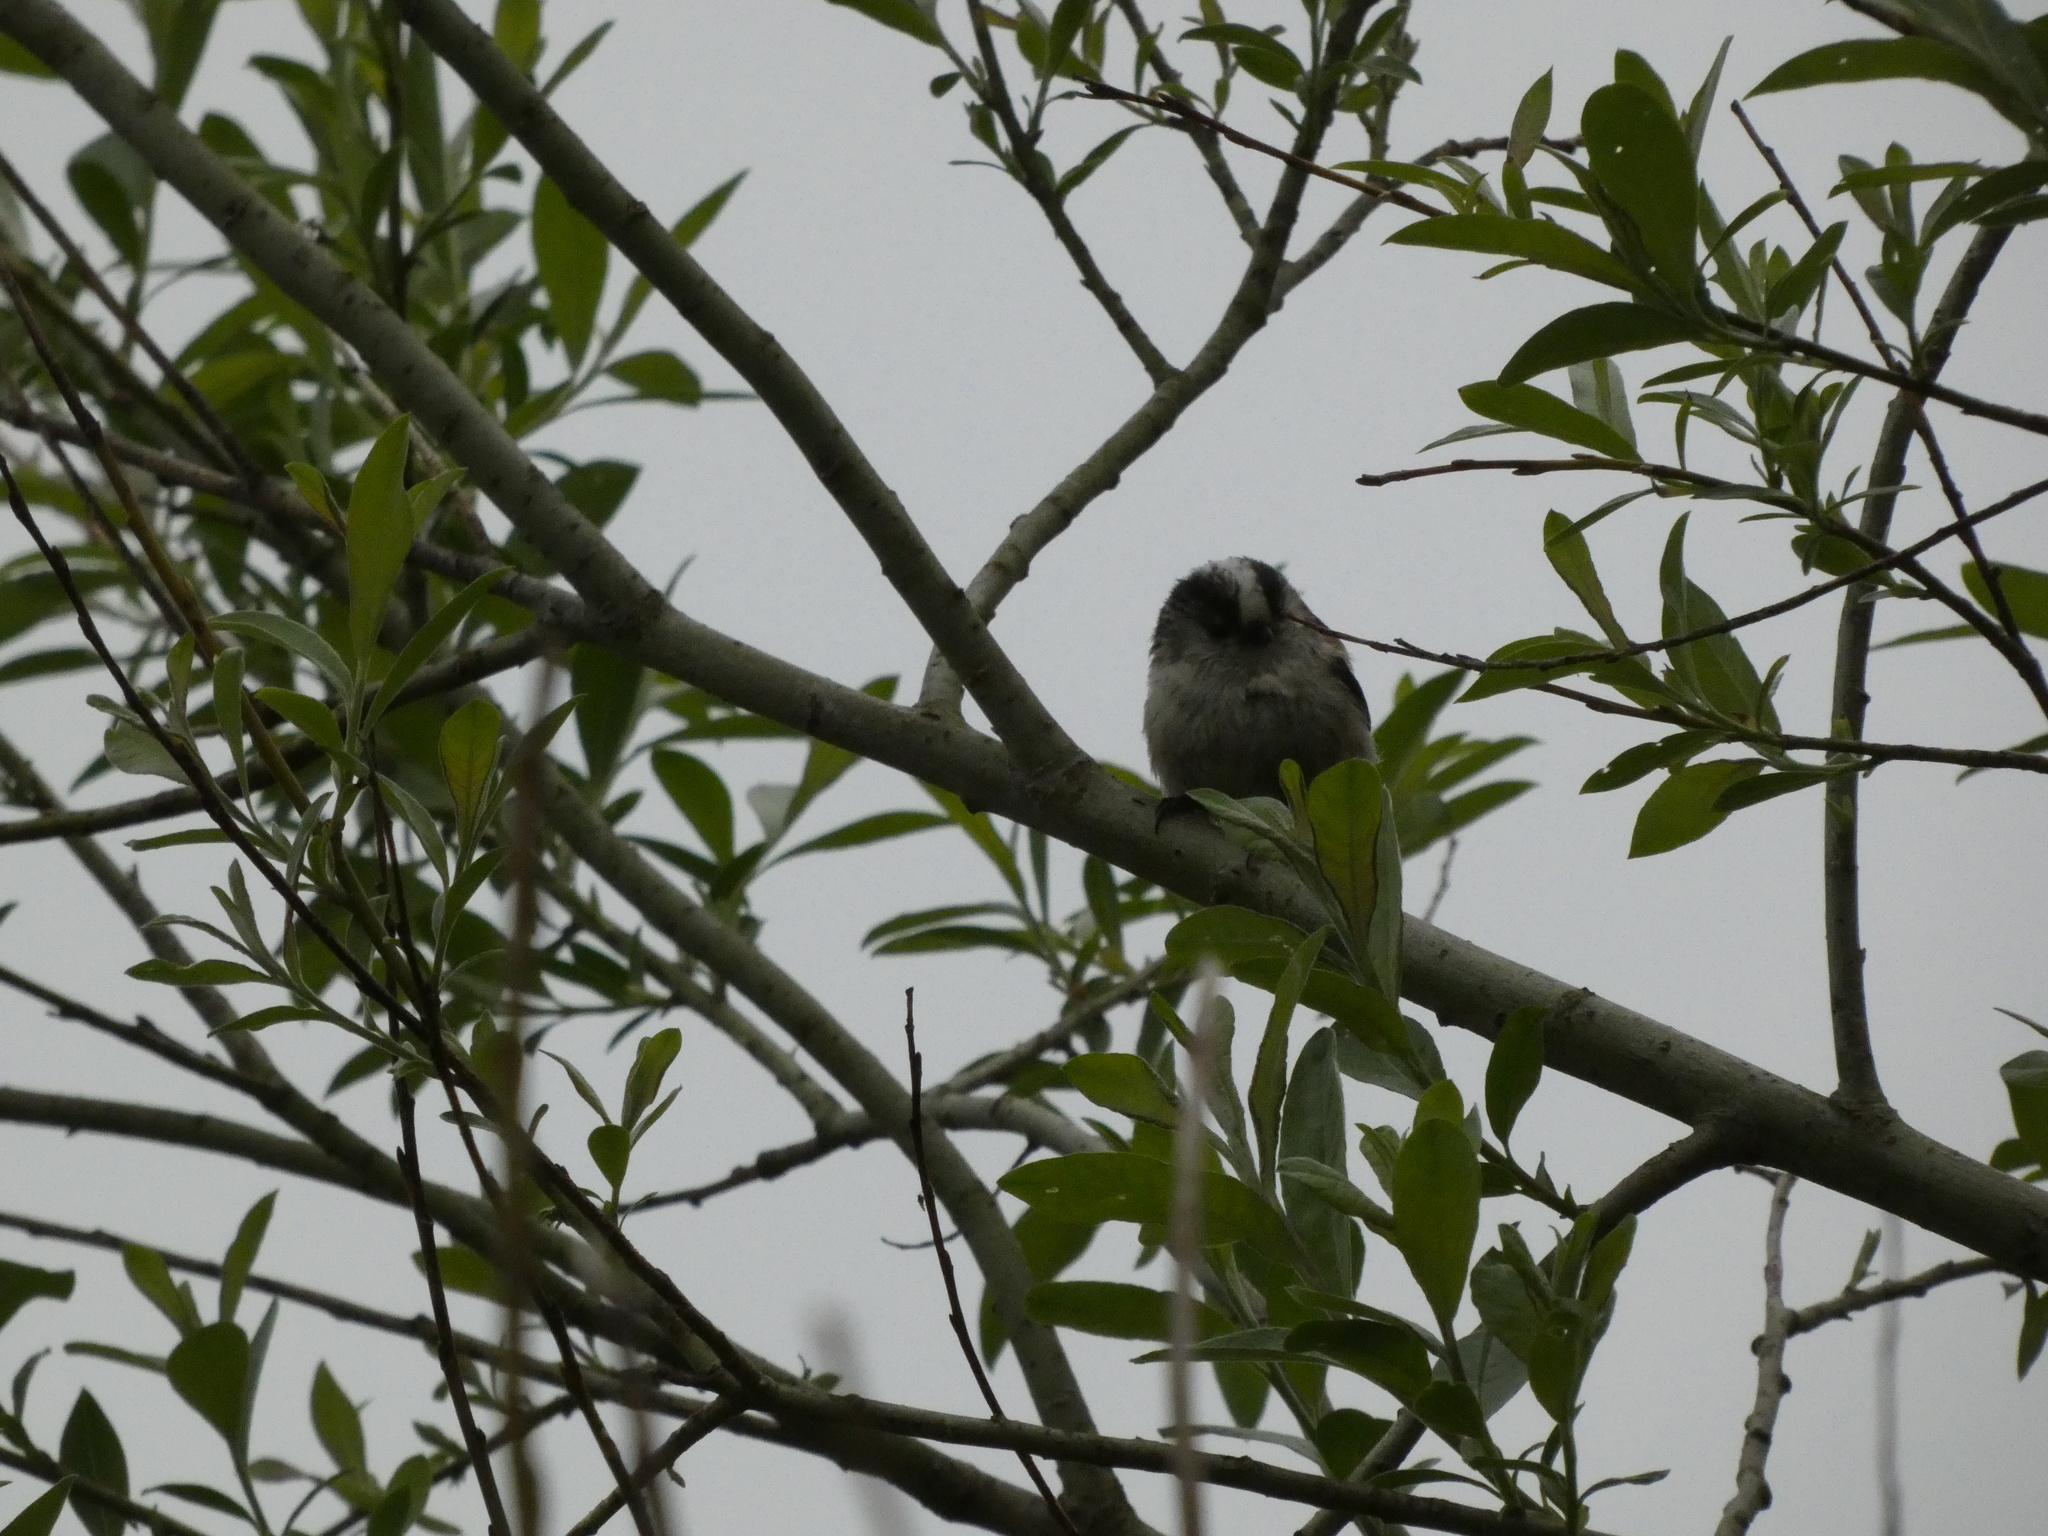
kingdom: Animalia
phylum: Chordata
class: Aves
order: Passeriformes
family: Aegithalidae
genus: Aegithalos
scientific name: Aegithalos caudatus
